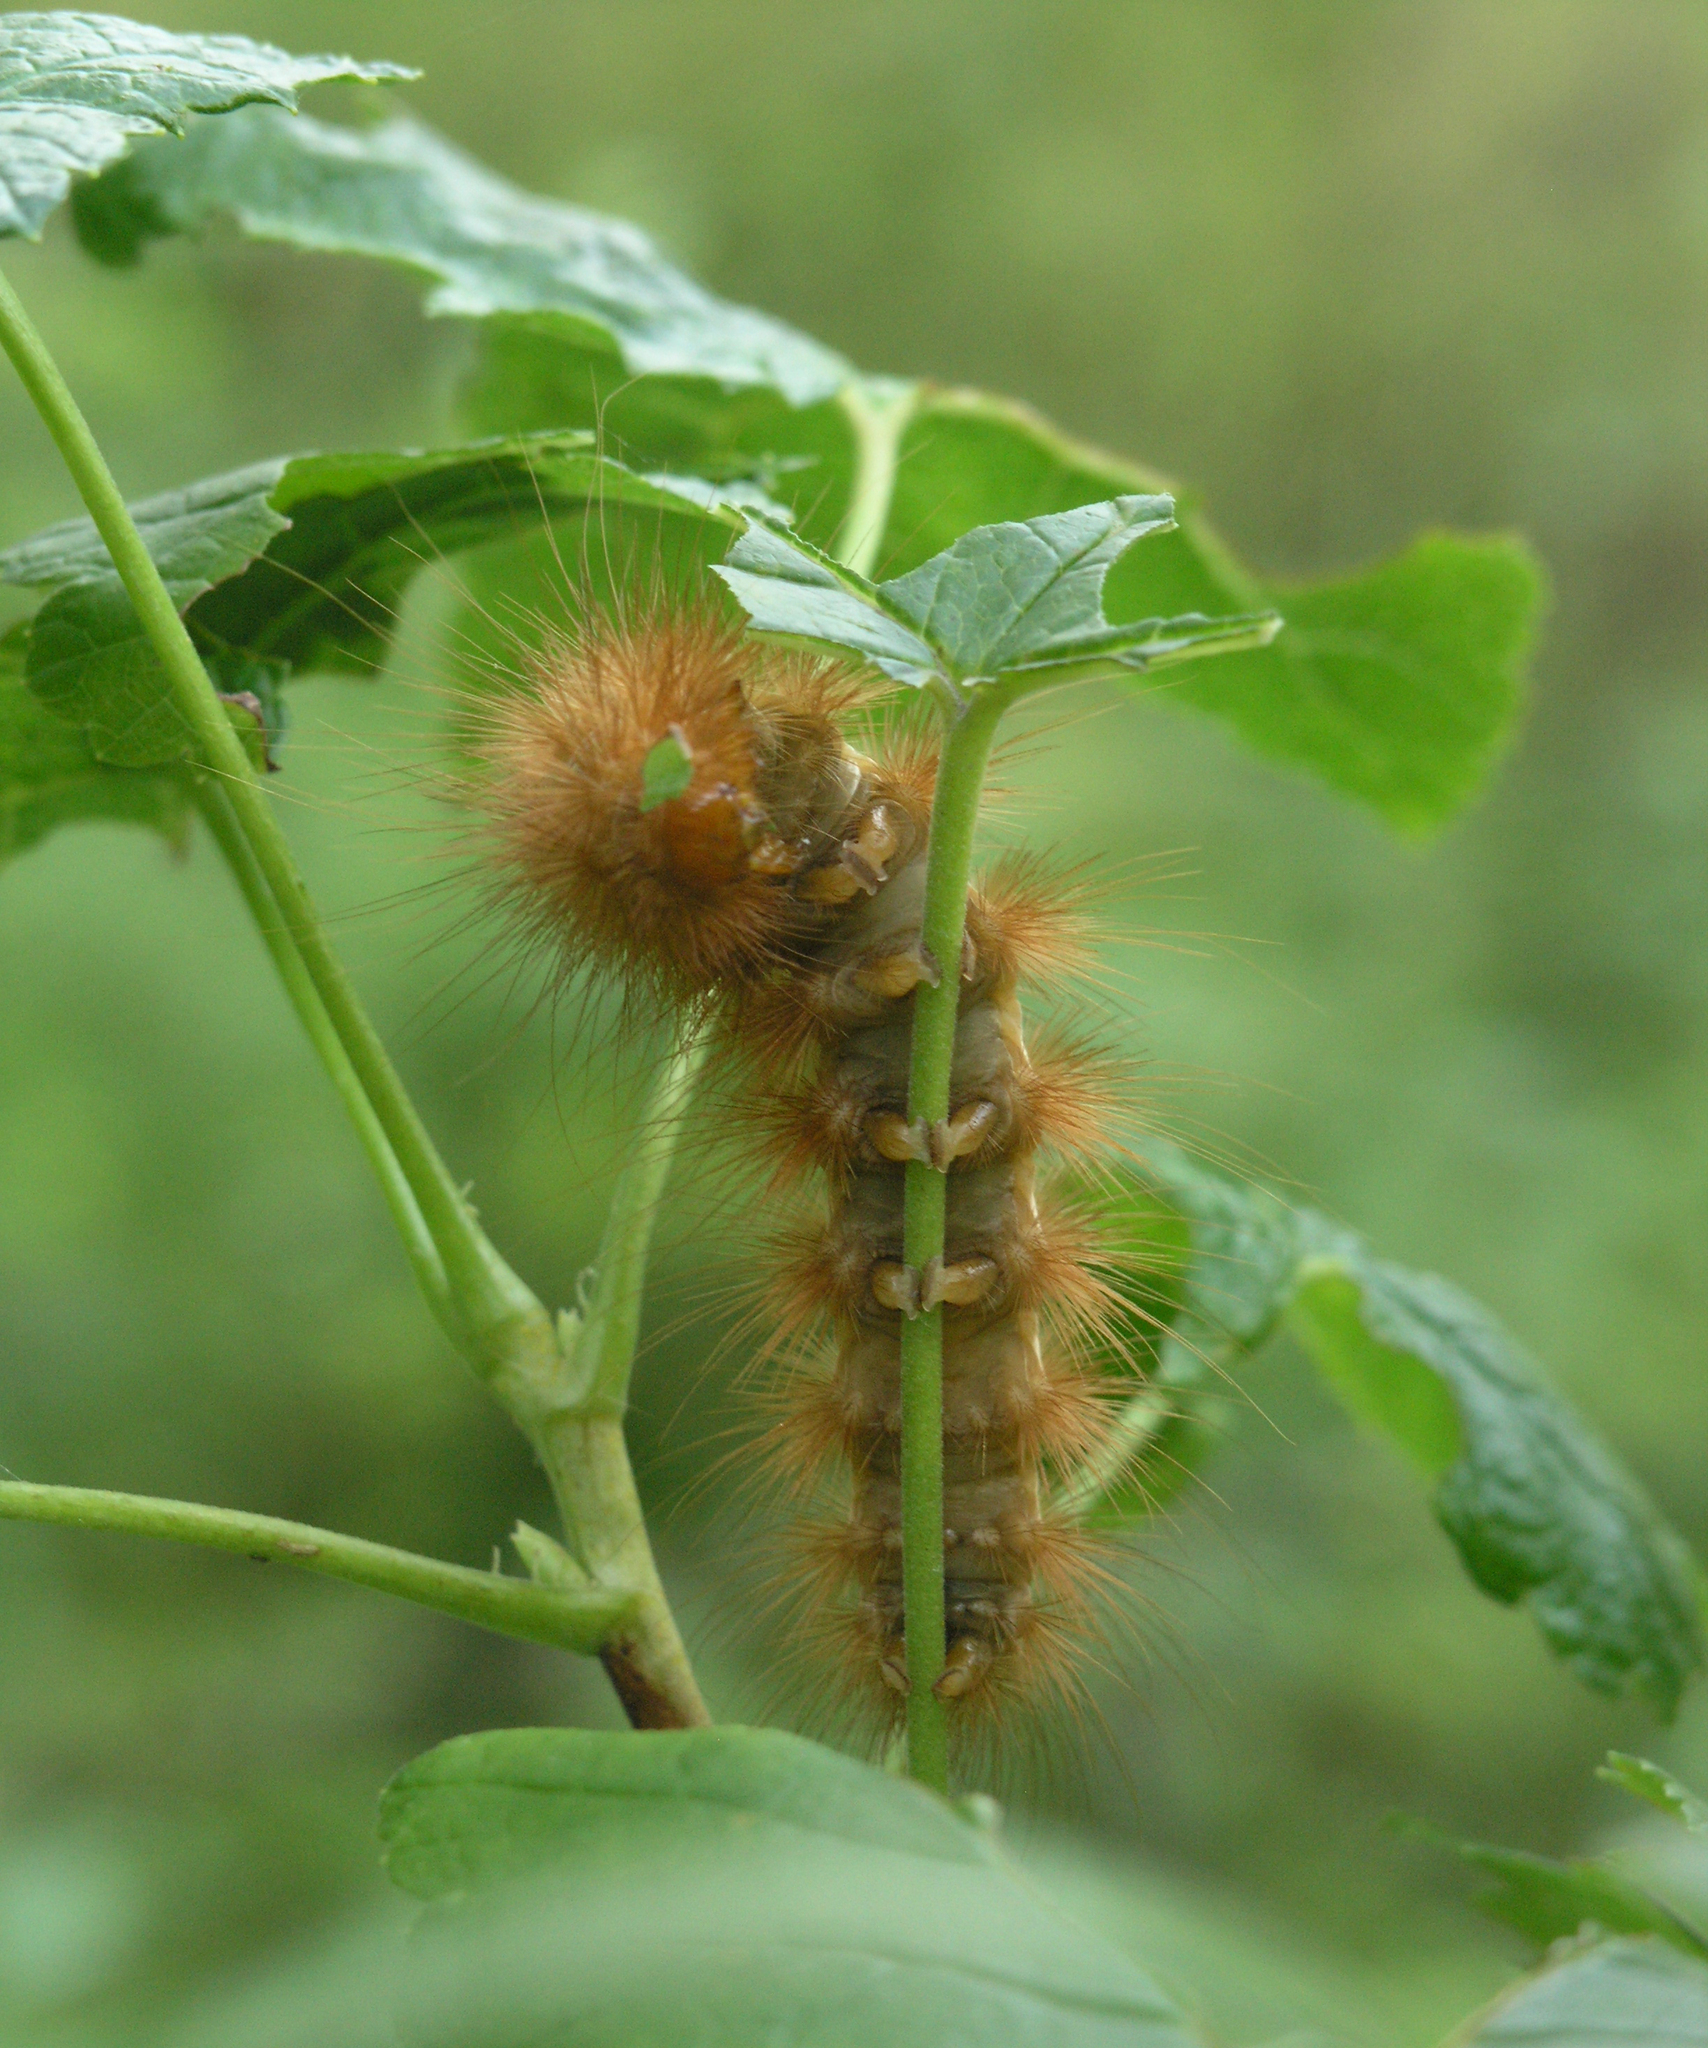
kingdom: Animalia
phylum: Arthropoda
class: Insecta
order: Lepidoptera
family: Erebidae
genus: Spilarctia
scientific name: Spilarctia lutea
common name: Buff ermine
